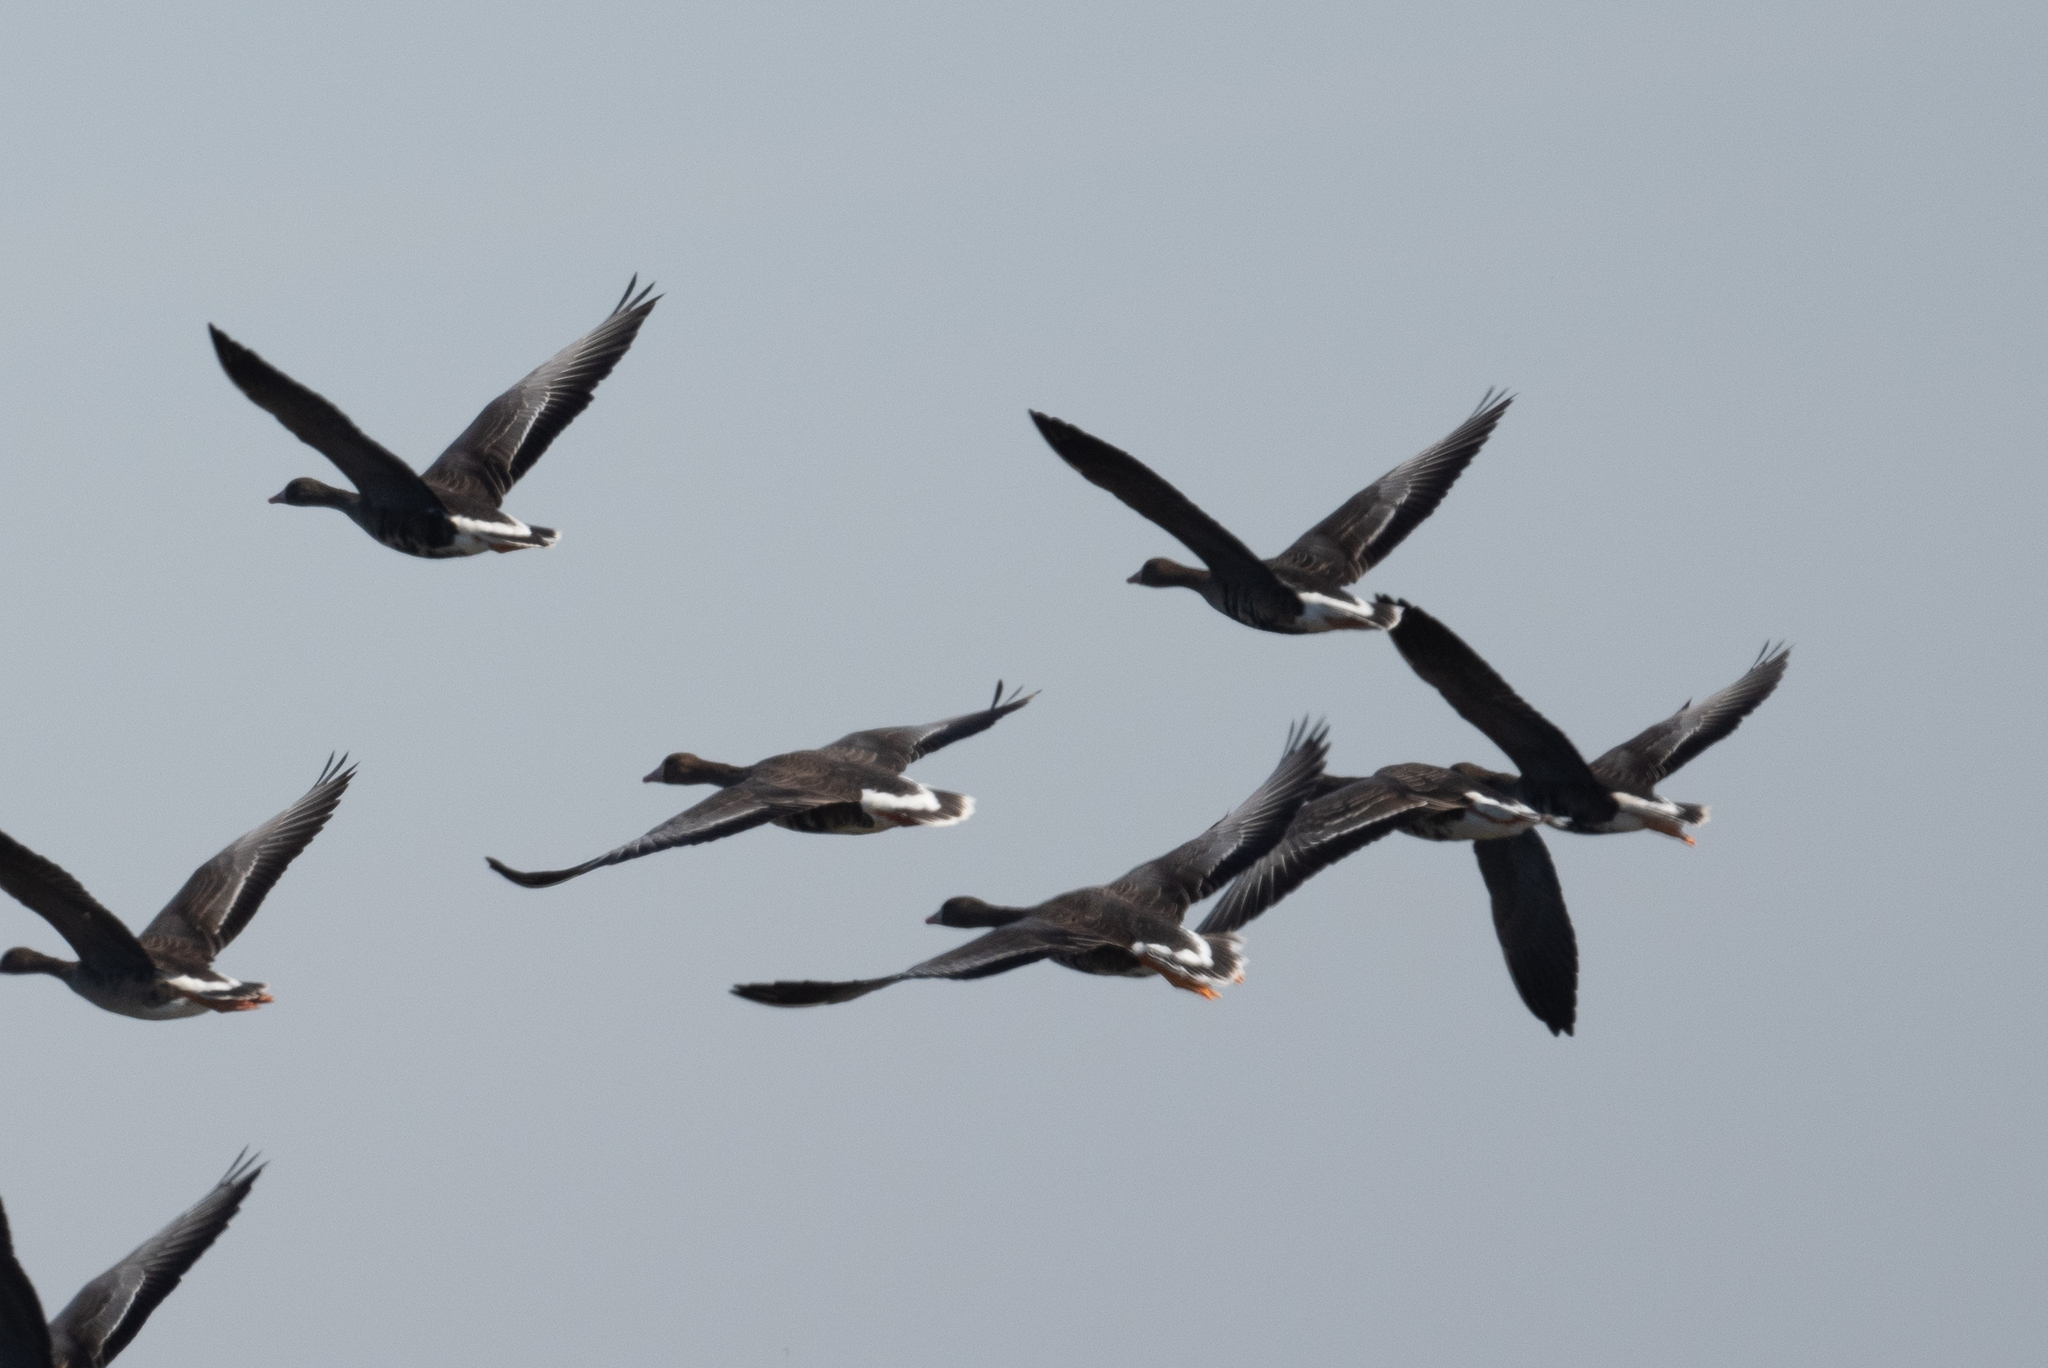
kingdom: Animalia
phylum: Chordata
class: Aves
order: Anseriformes
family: Anatidae
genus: Anser
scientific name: Anser albifrons
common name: Greater white-fronted goose
